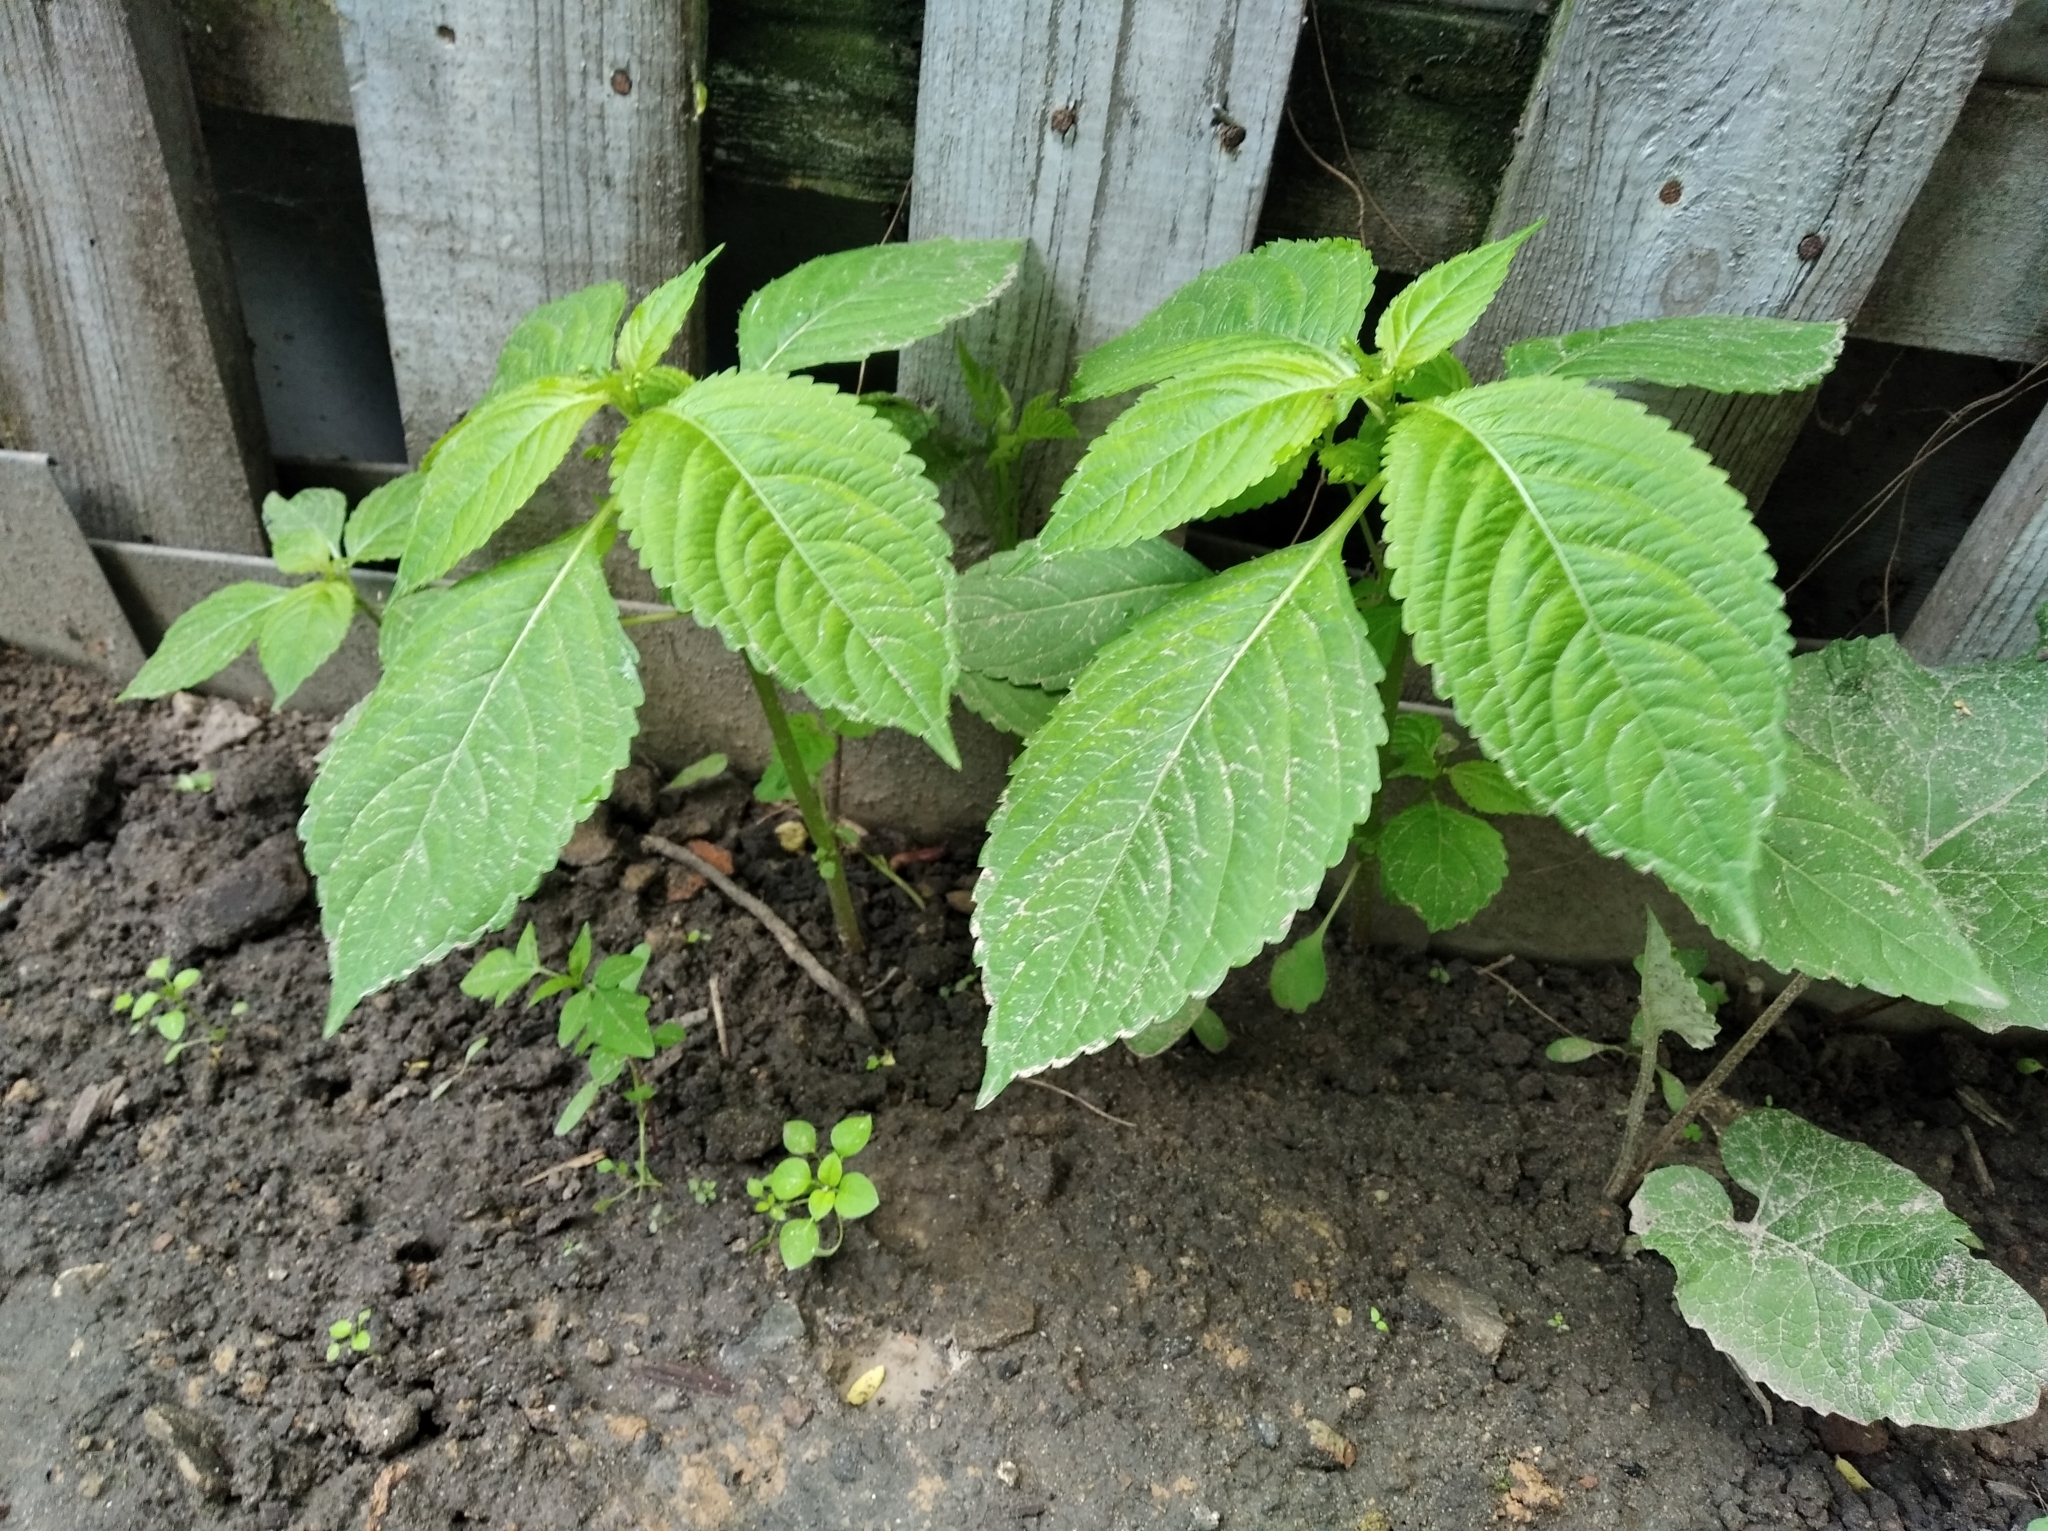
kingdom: Plantae
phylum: Tracheophyta
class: Magnoliopsida
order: Ericales
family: Balsaminaceae
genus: Impatiens
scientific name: Impatiens parviflora
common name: Small balsam
